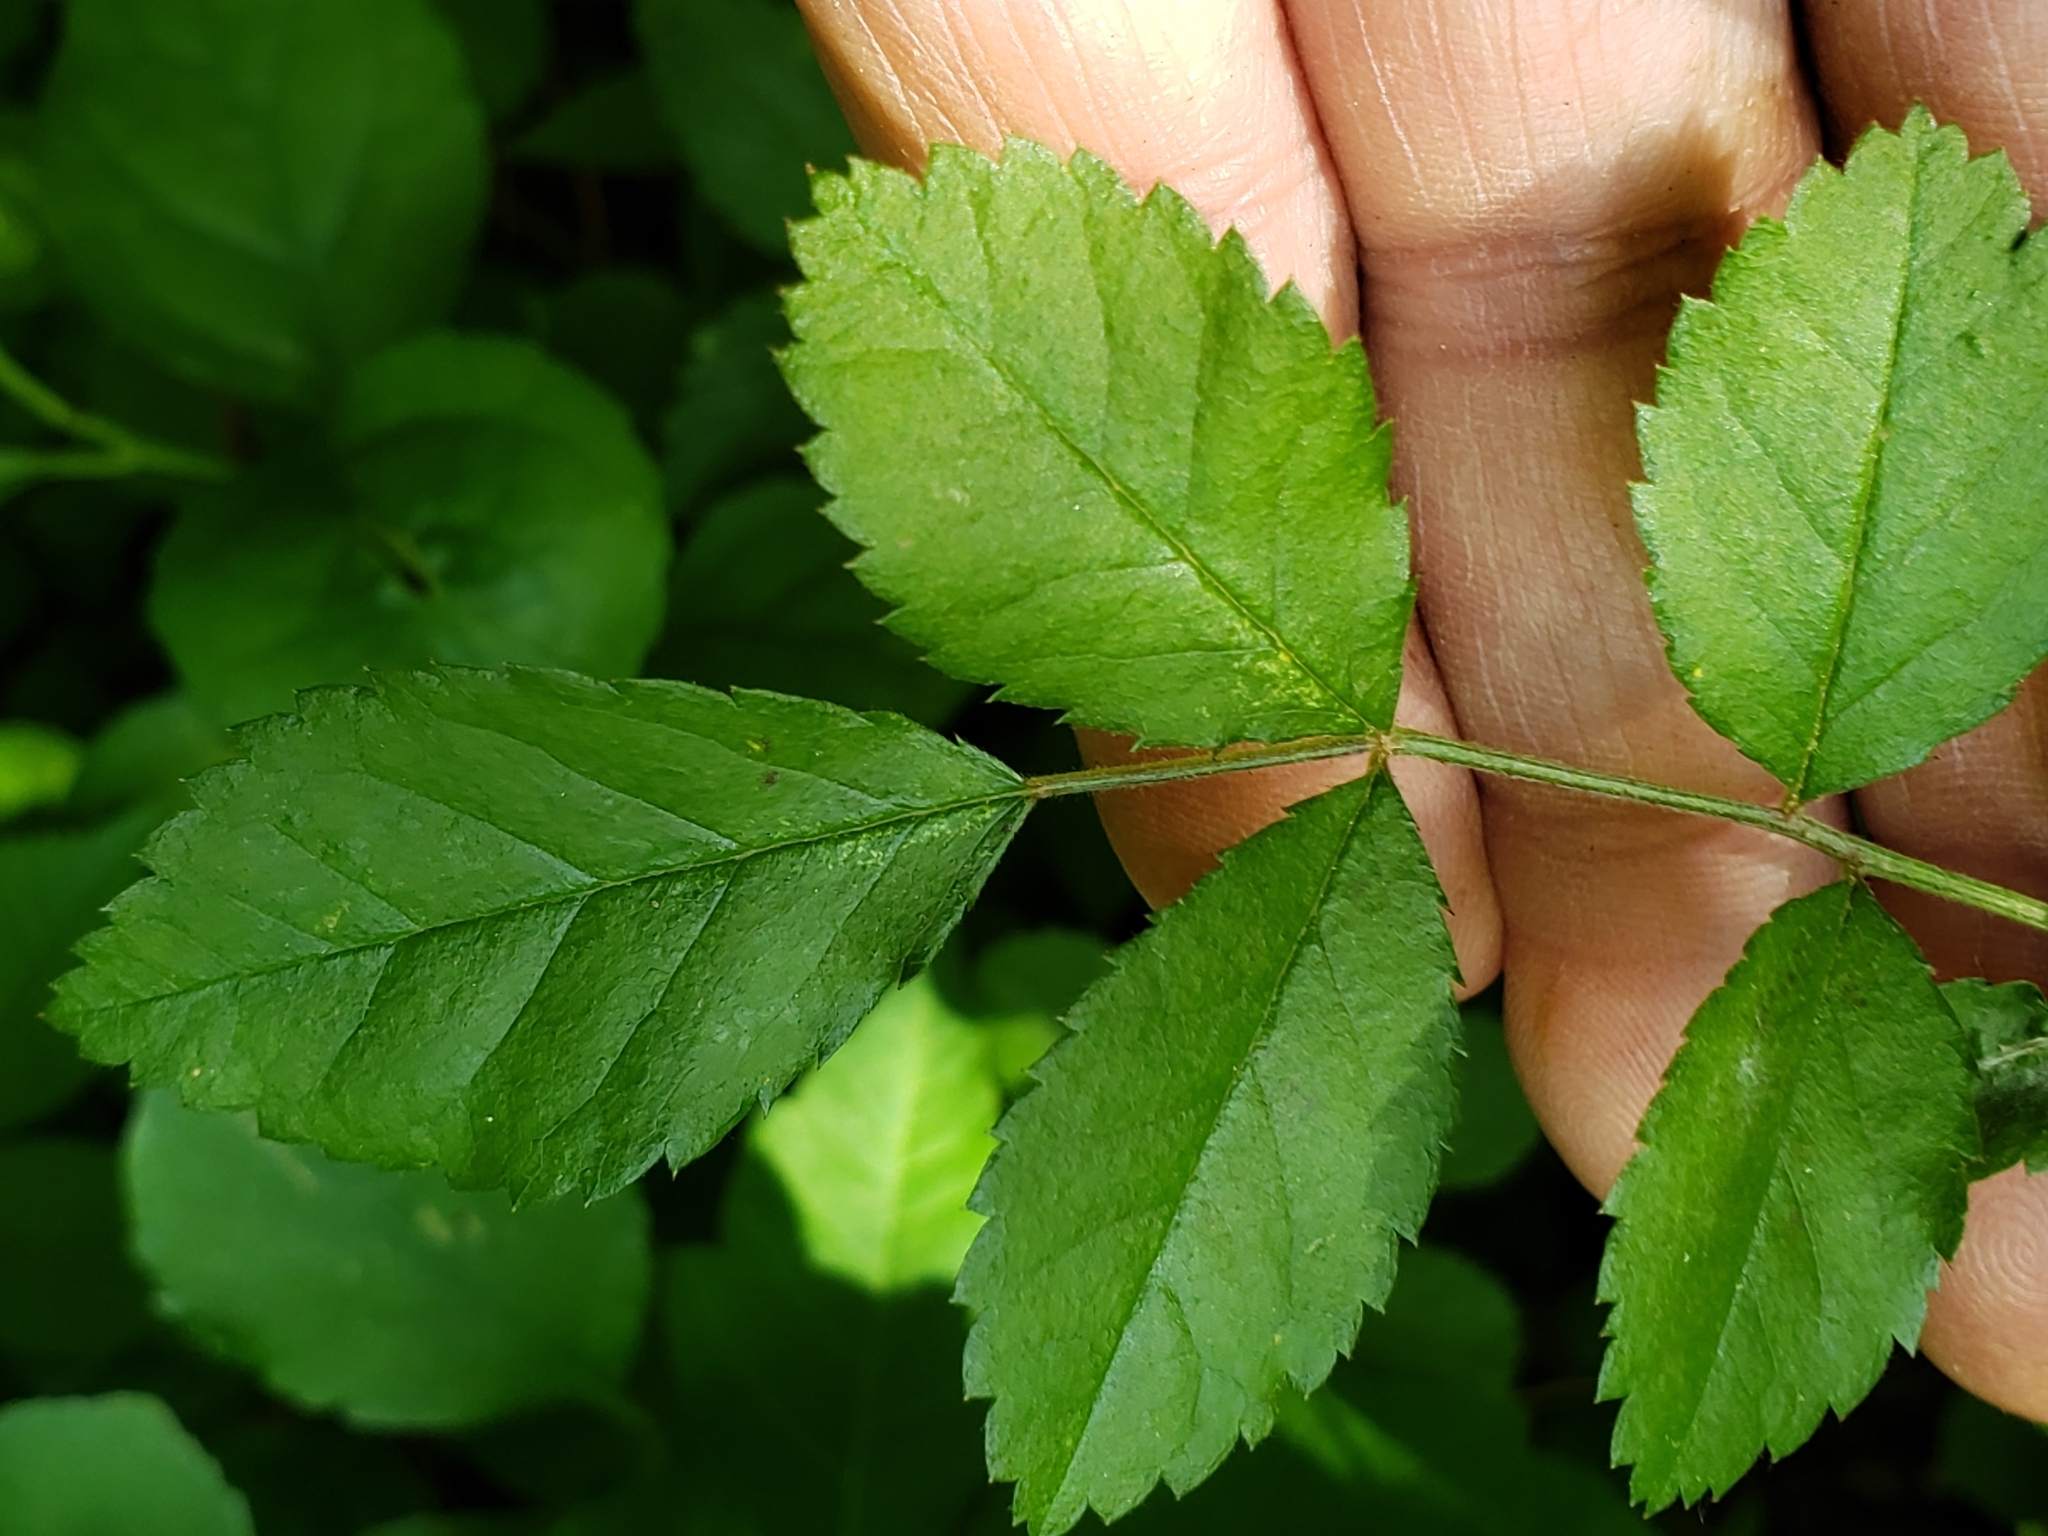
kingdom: Fungi
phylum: Basidiomycota
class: Pucciniomycetes
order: Pucciniales
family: Phragmidiaceae
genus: Phragmidium
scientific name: Phragmidium rosae-multiflorae
